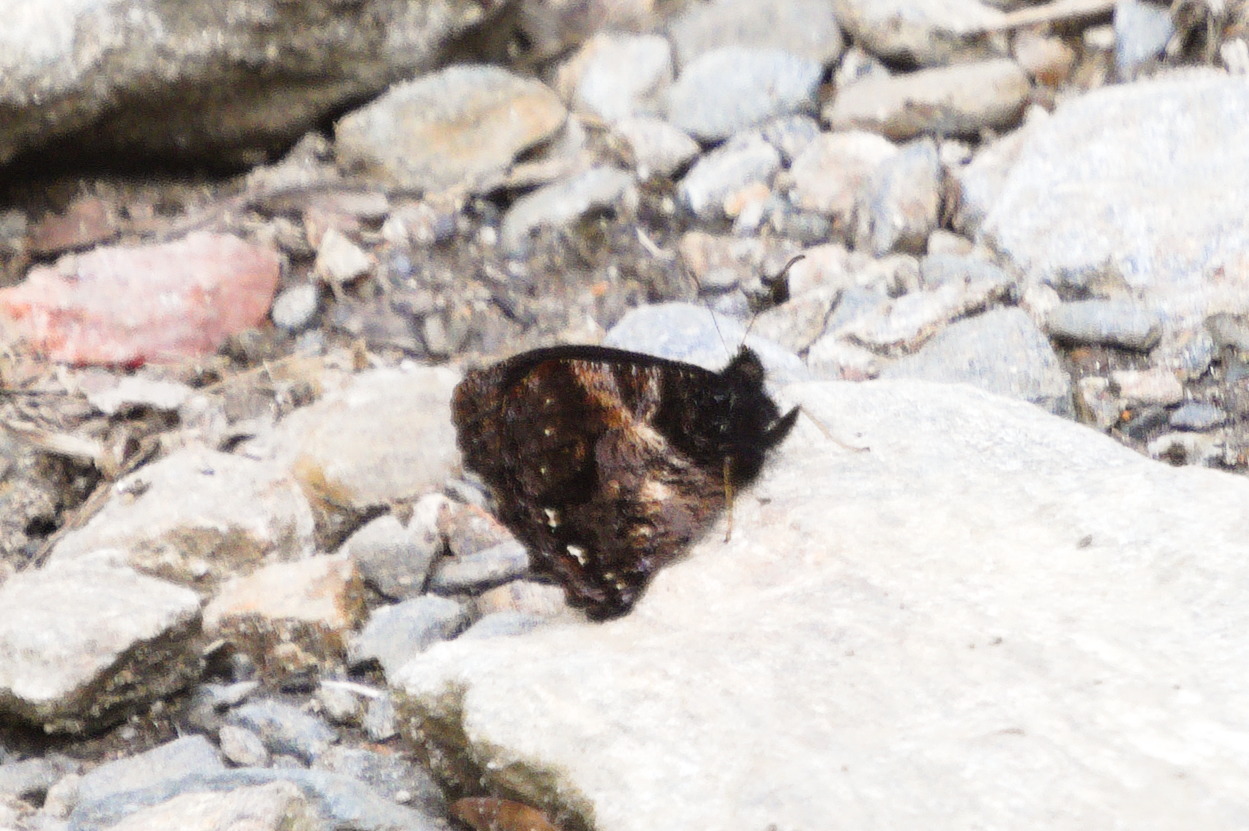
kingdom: Animalia
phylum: Arthropoda
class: Insecta
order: Lepidoptera
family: Nymphalidae
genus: Steroma
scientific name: Steroma polyxo
